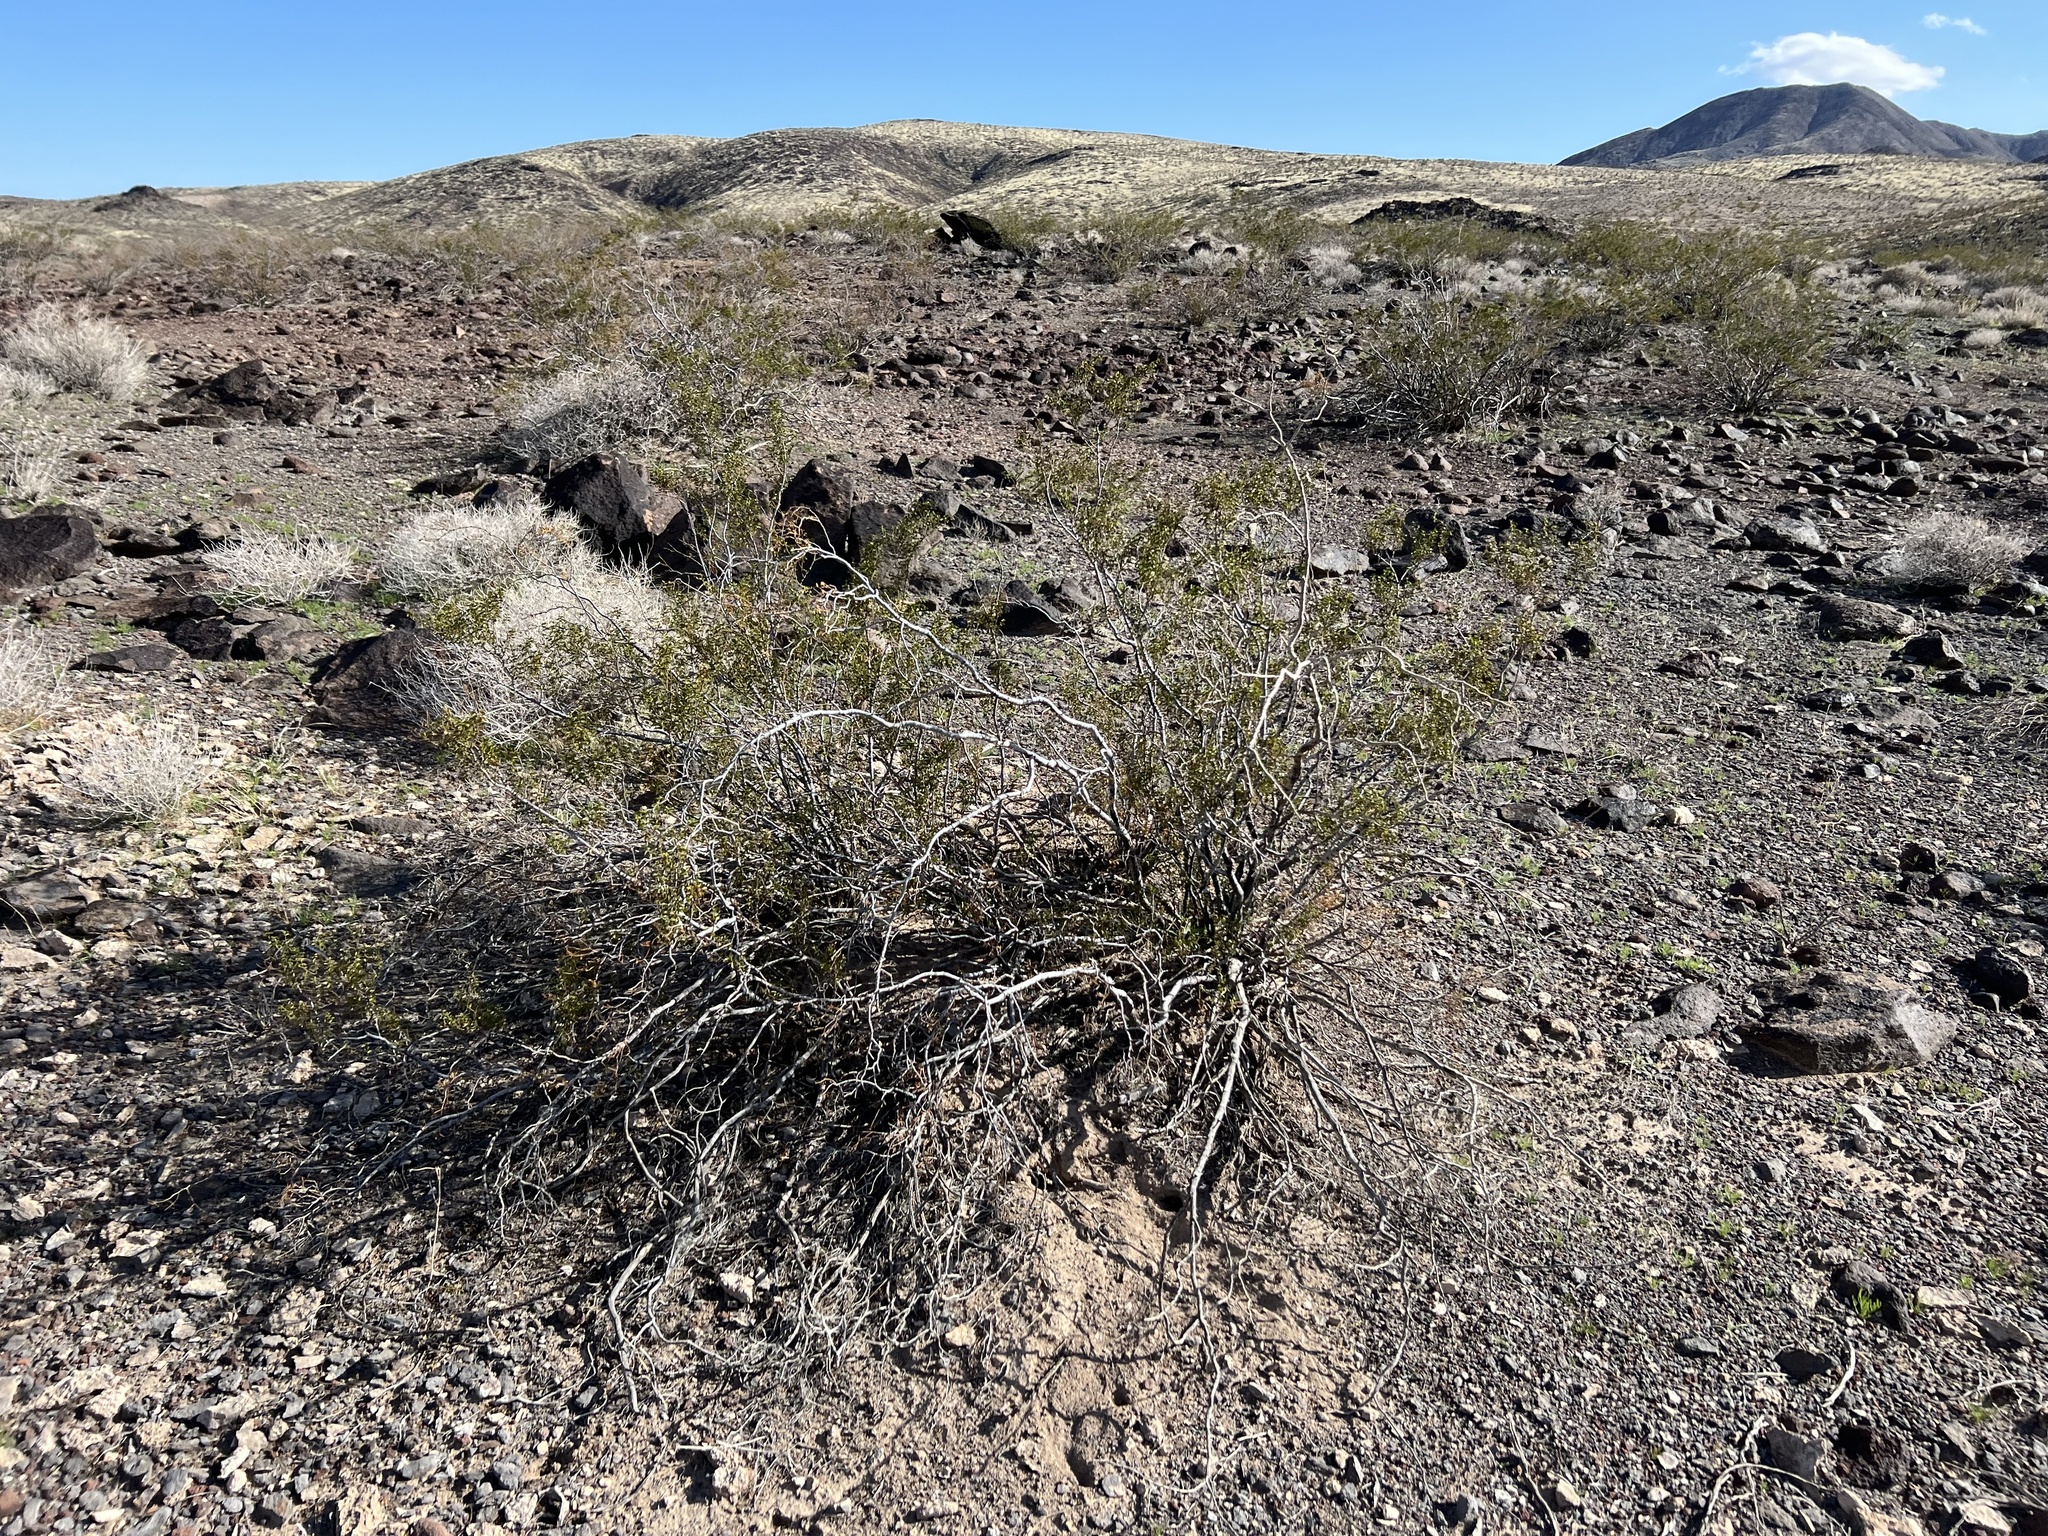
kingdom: Plantae
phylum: Tracheophyta
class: Magnoliopsida
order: Zygophyllales
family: Zygophyllaceae
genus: Larrea
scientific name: Larrea tridentata
